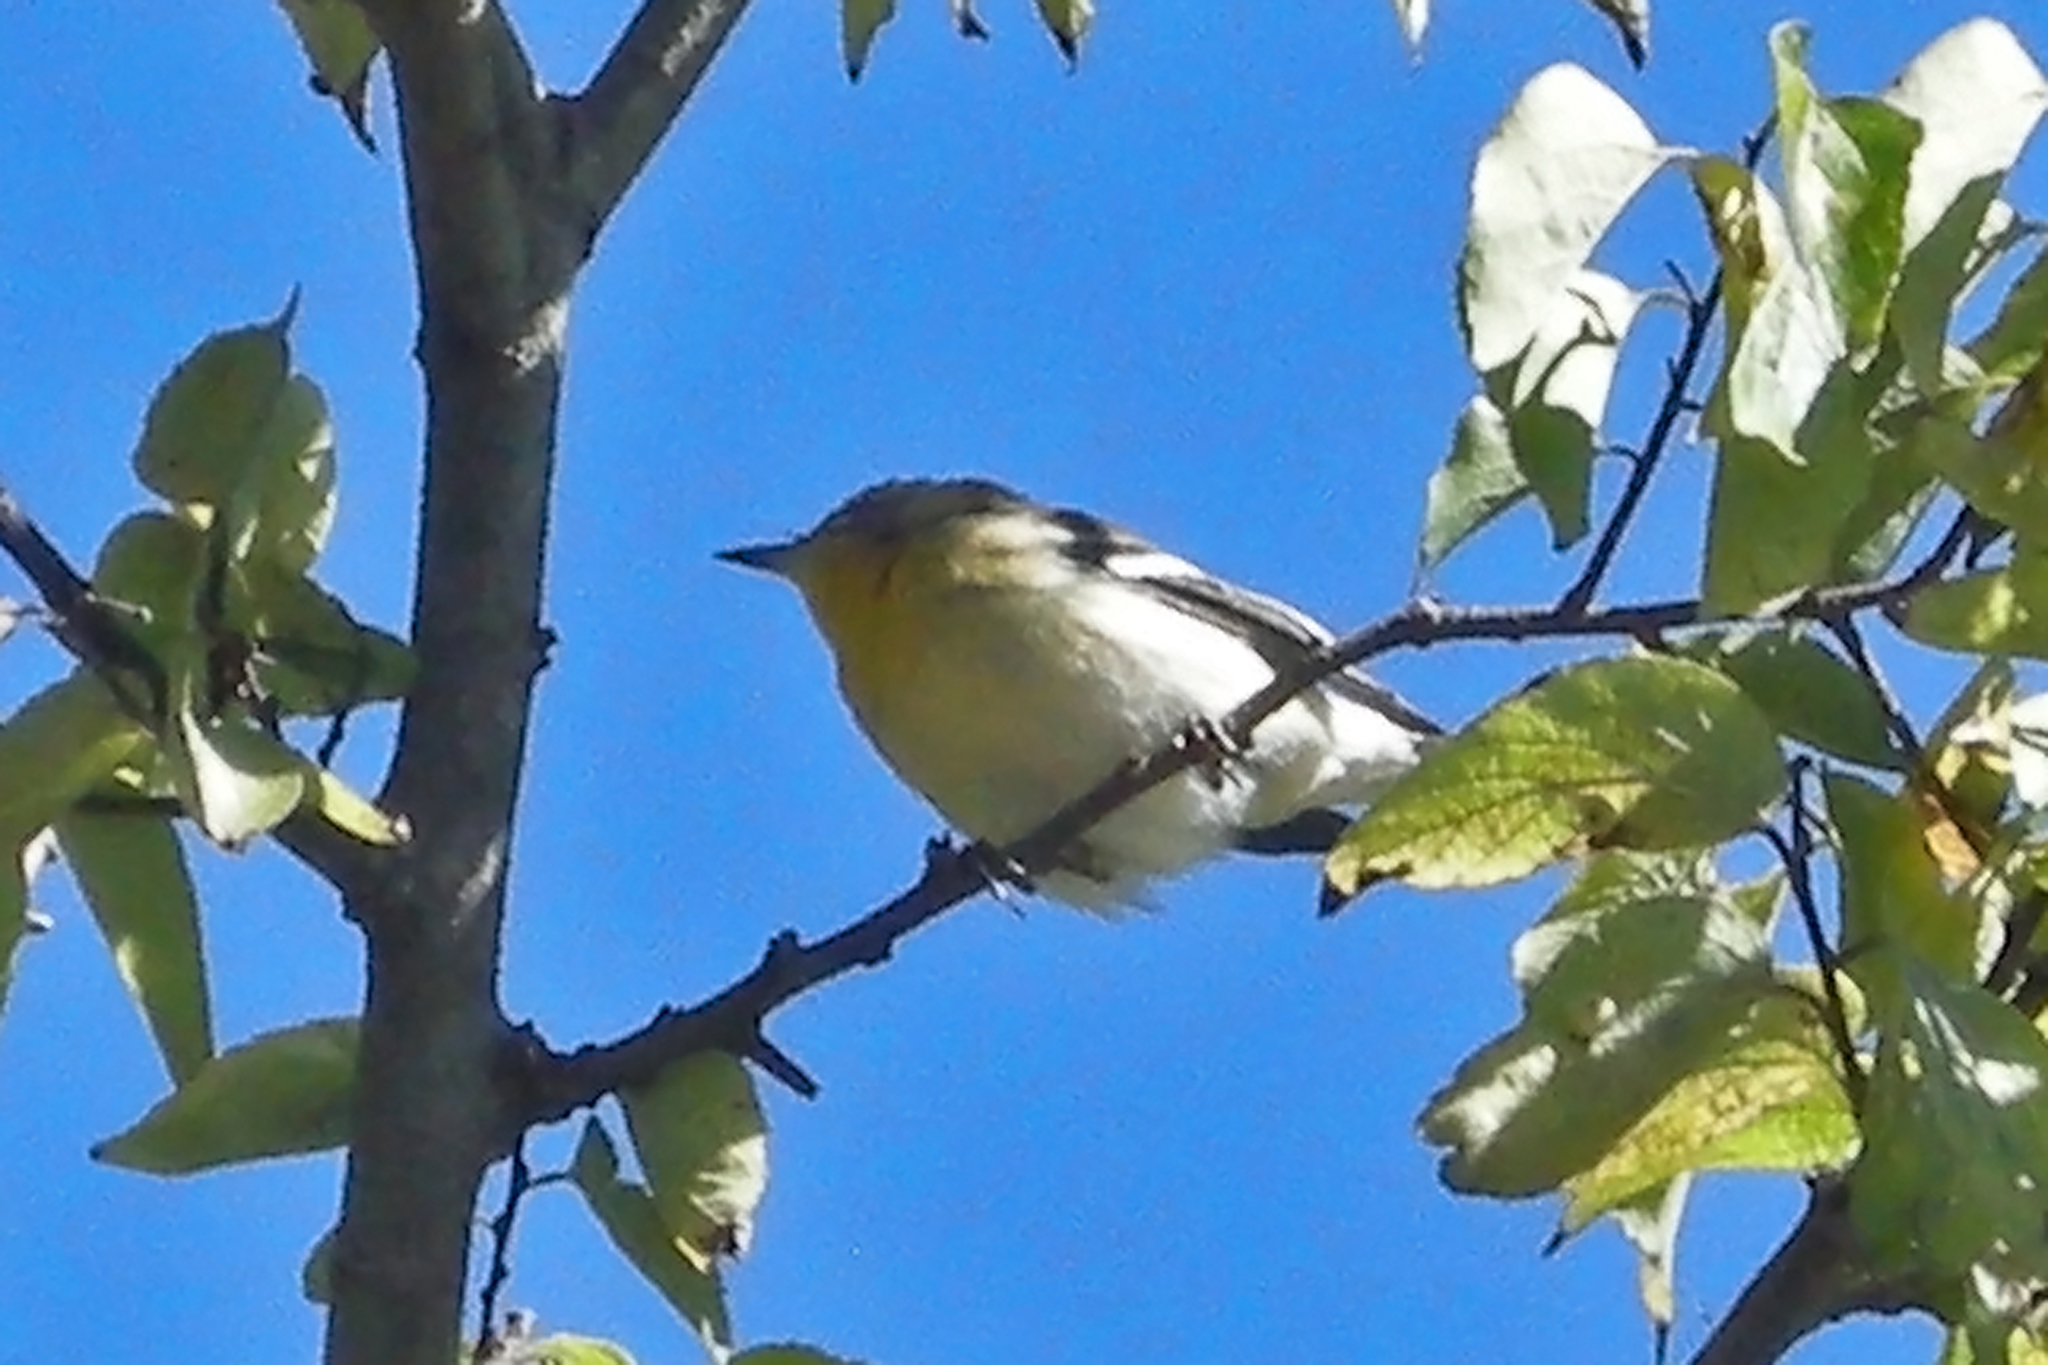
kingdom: Animalia
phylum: Chordata
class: Aves
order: Passeriformes
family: Parulidae
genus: Setophaga
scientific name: Setophaga fusca
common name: Blackburnian warbler
